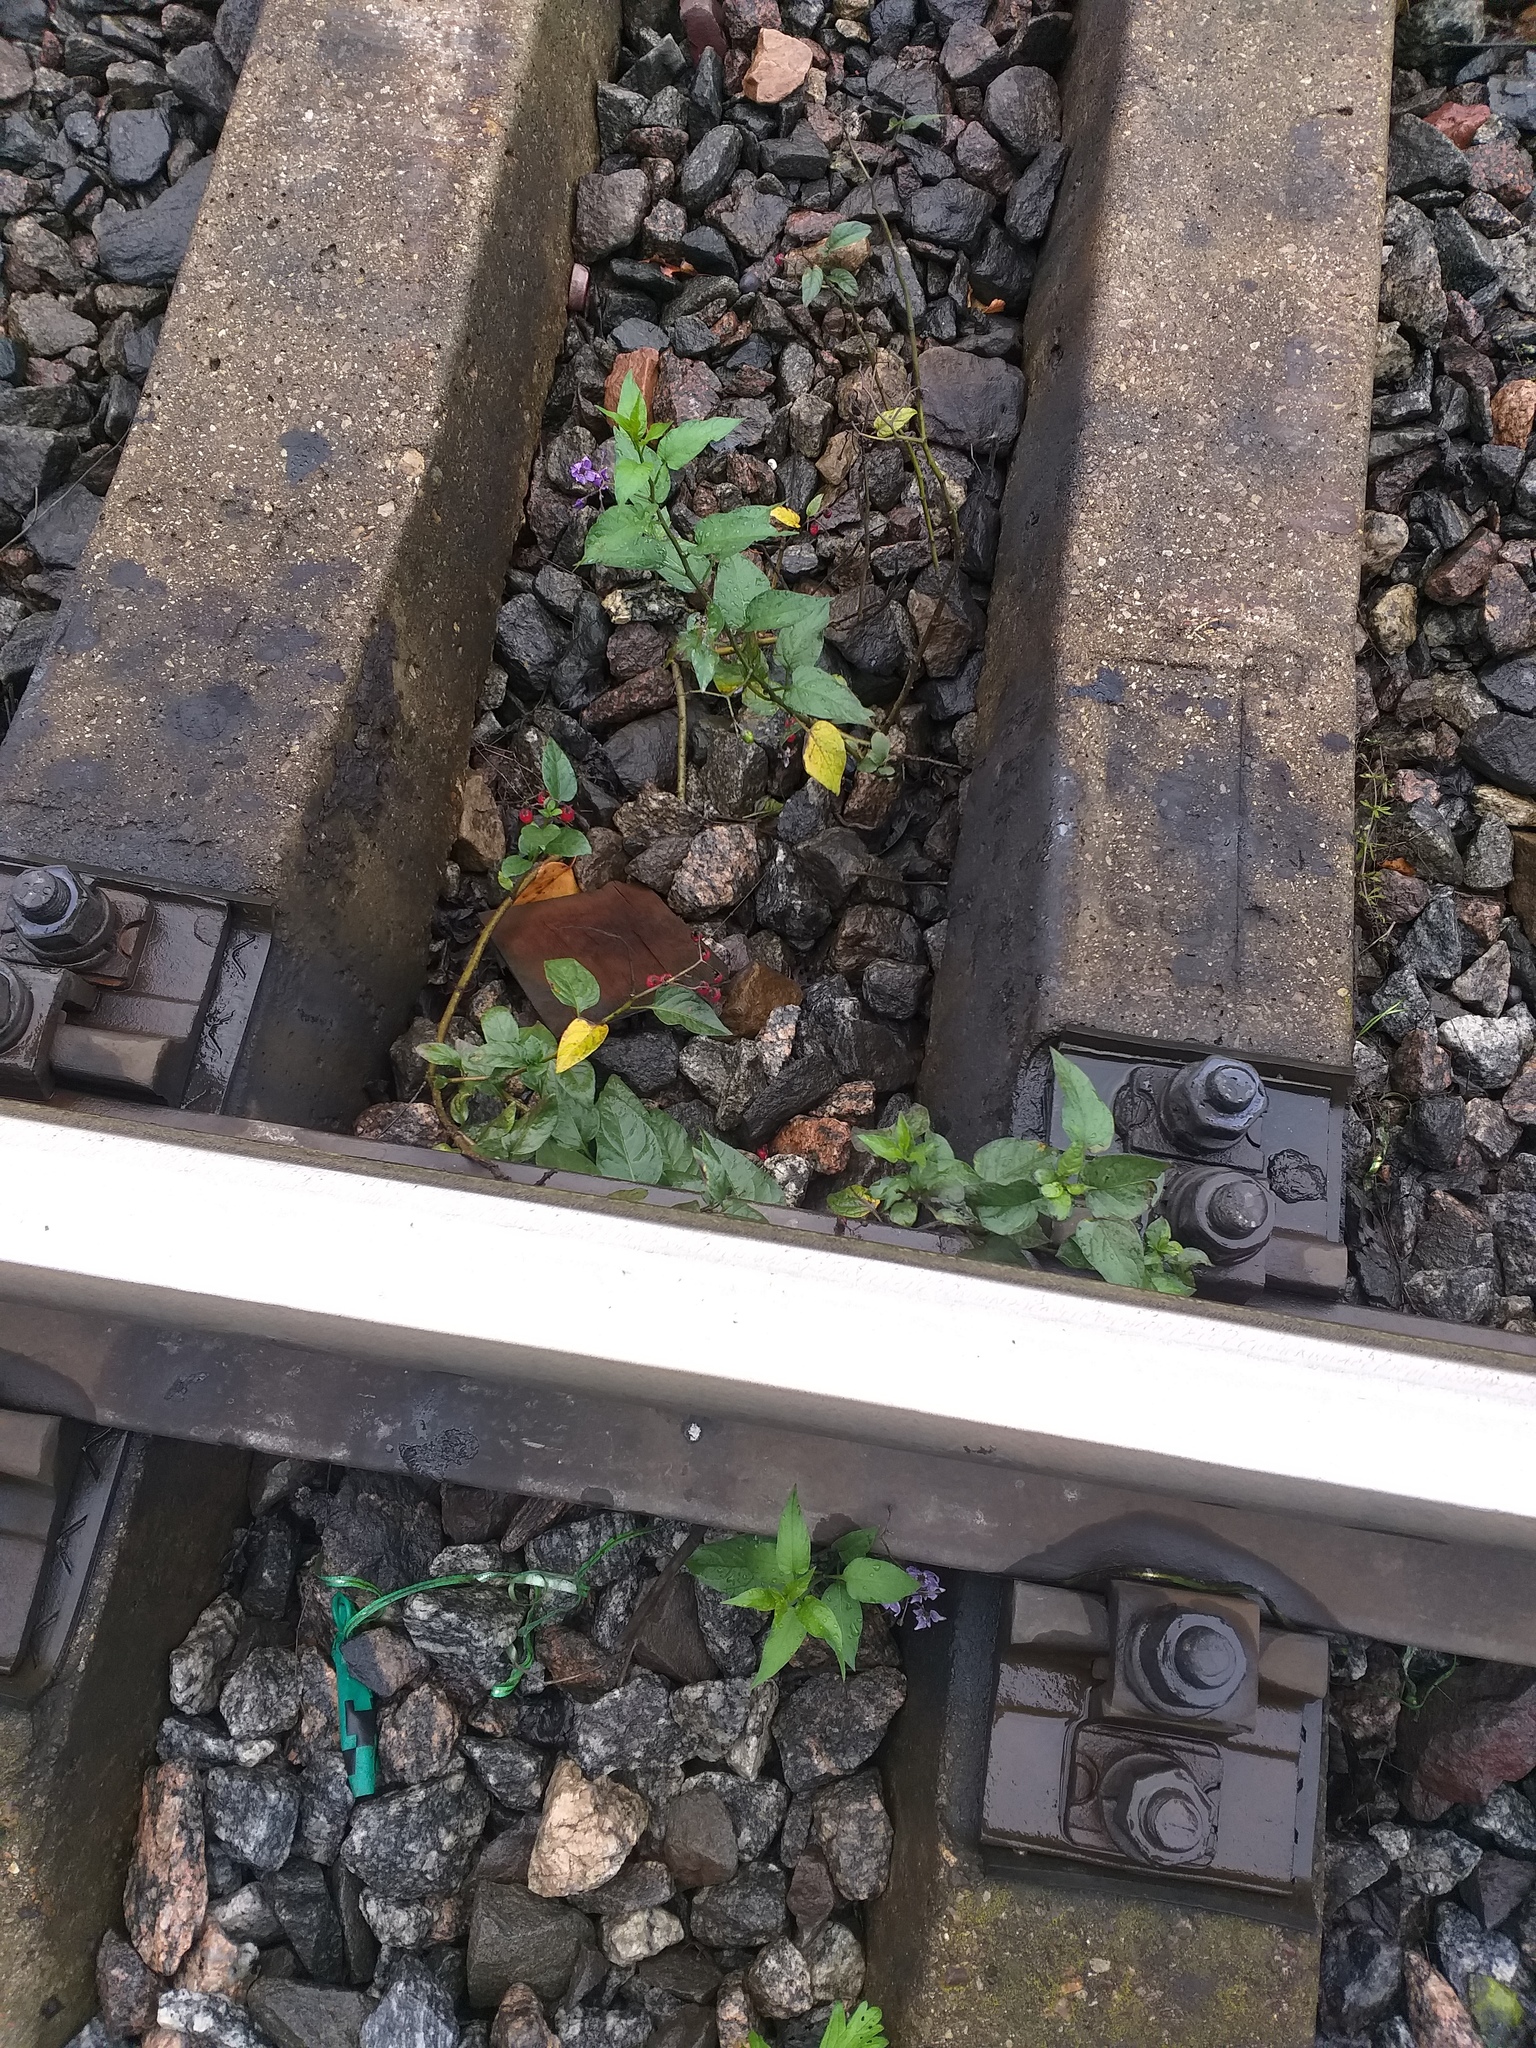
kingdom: Plantae
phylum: Tracheophyta
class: Magnoliopsida
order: Solanales
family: Solanaceae
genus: Solanum
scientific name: Solanum dulcamara
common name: Climbing nightshade
